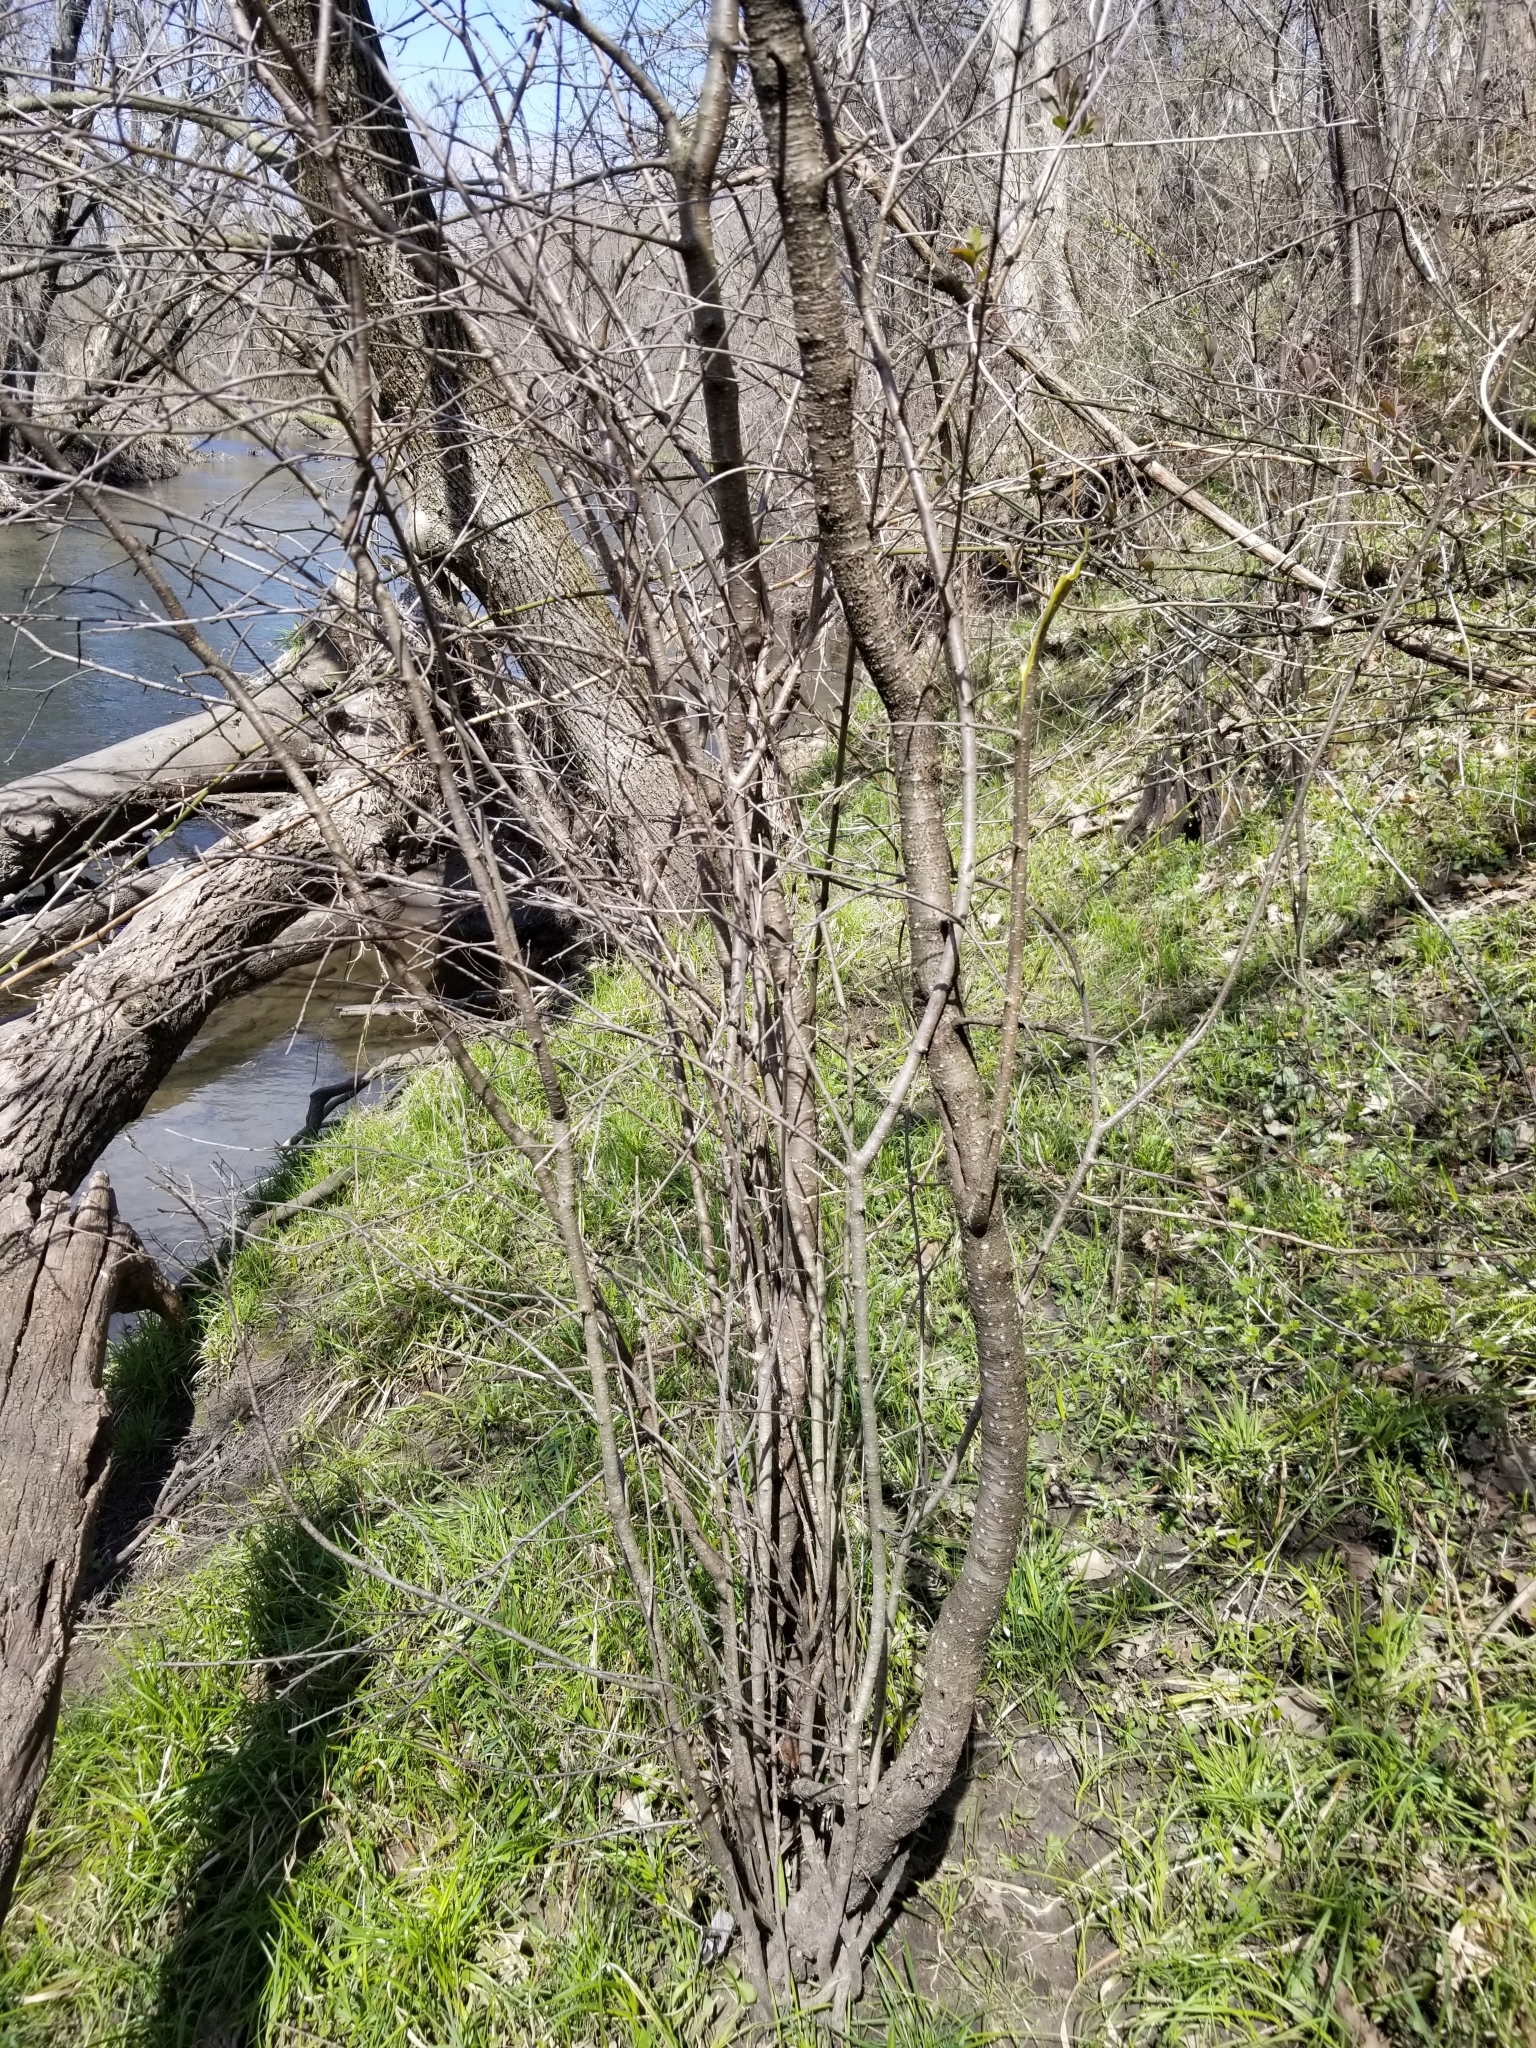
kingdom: Plantae
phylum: Tracheophyta
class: Magnoliopsida
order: Rosales
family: Rhamnaceae
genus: Rhamnus
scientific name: Rhamnus cathartica
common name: Common buckthorn
